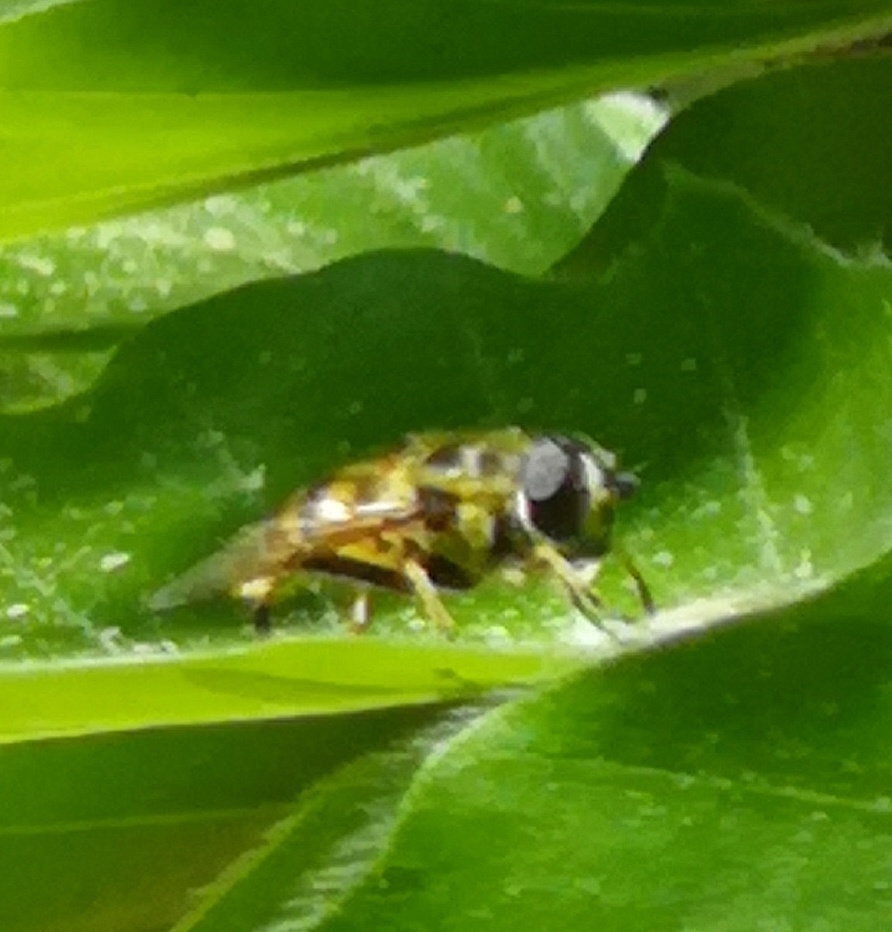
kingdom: Animalia
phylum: Arthropoda
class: Insecta
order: Diptera
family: Syrphidae
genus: Myathropa
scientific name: Myathropa florea
